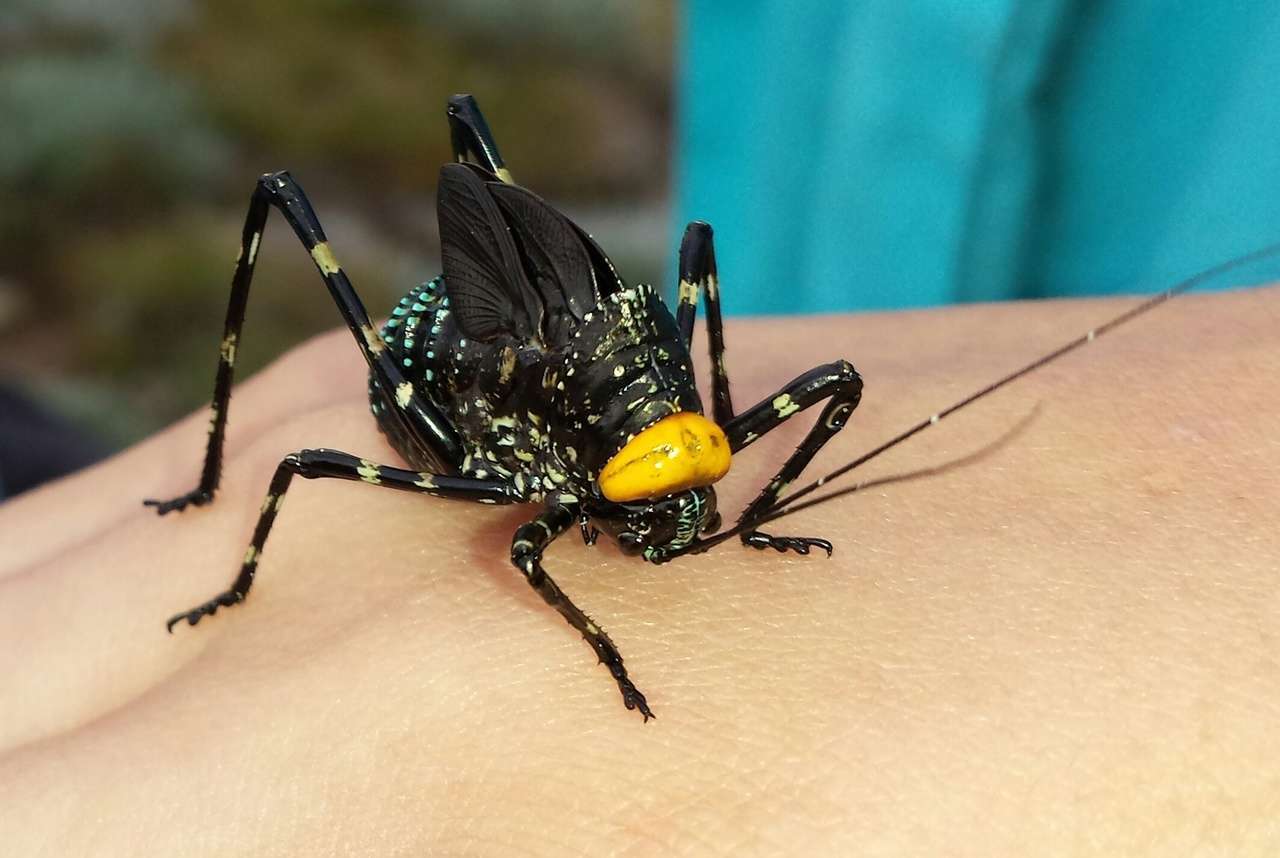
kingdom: Animalia
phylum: Arthropoda
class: Insecta
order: Orthoptera
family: Tettigoniidae
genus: Acripeza
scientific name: Acripeza reticulata
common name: Mountain katydid
